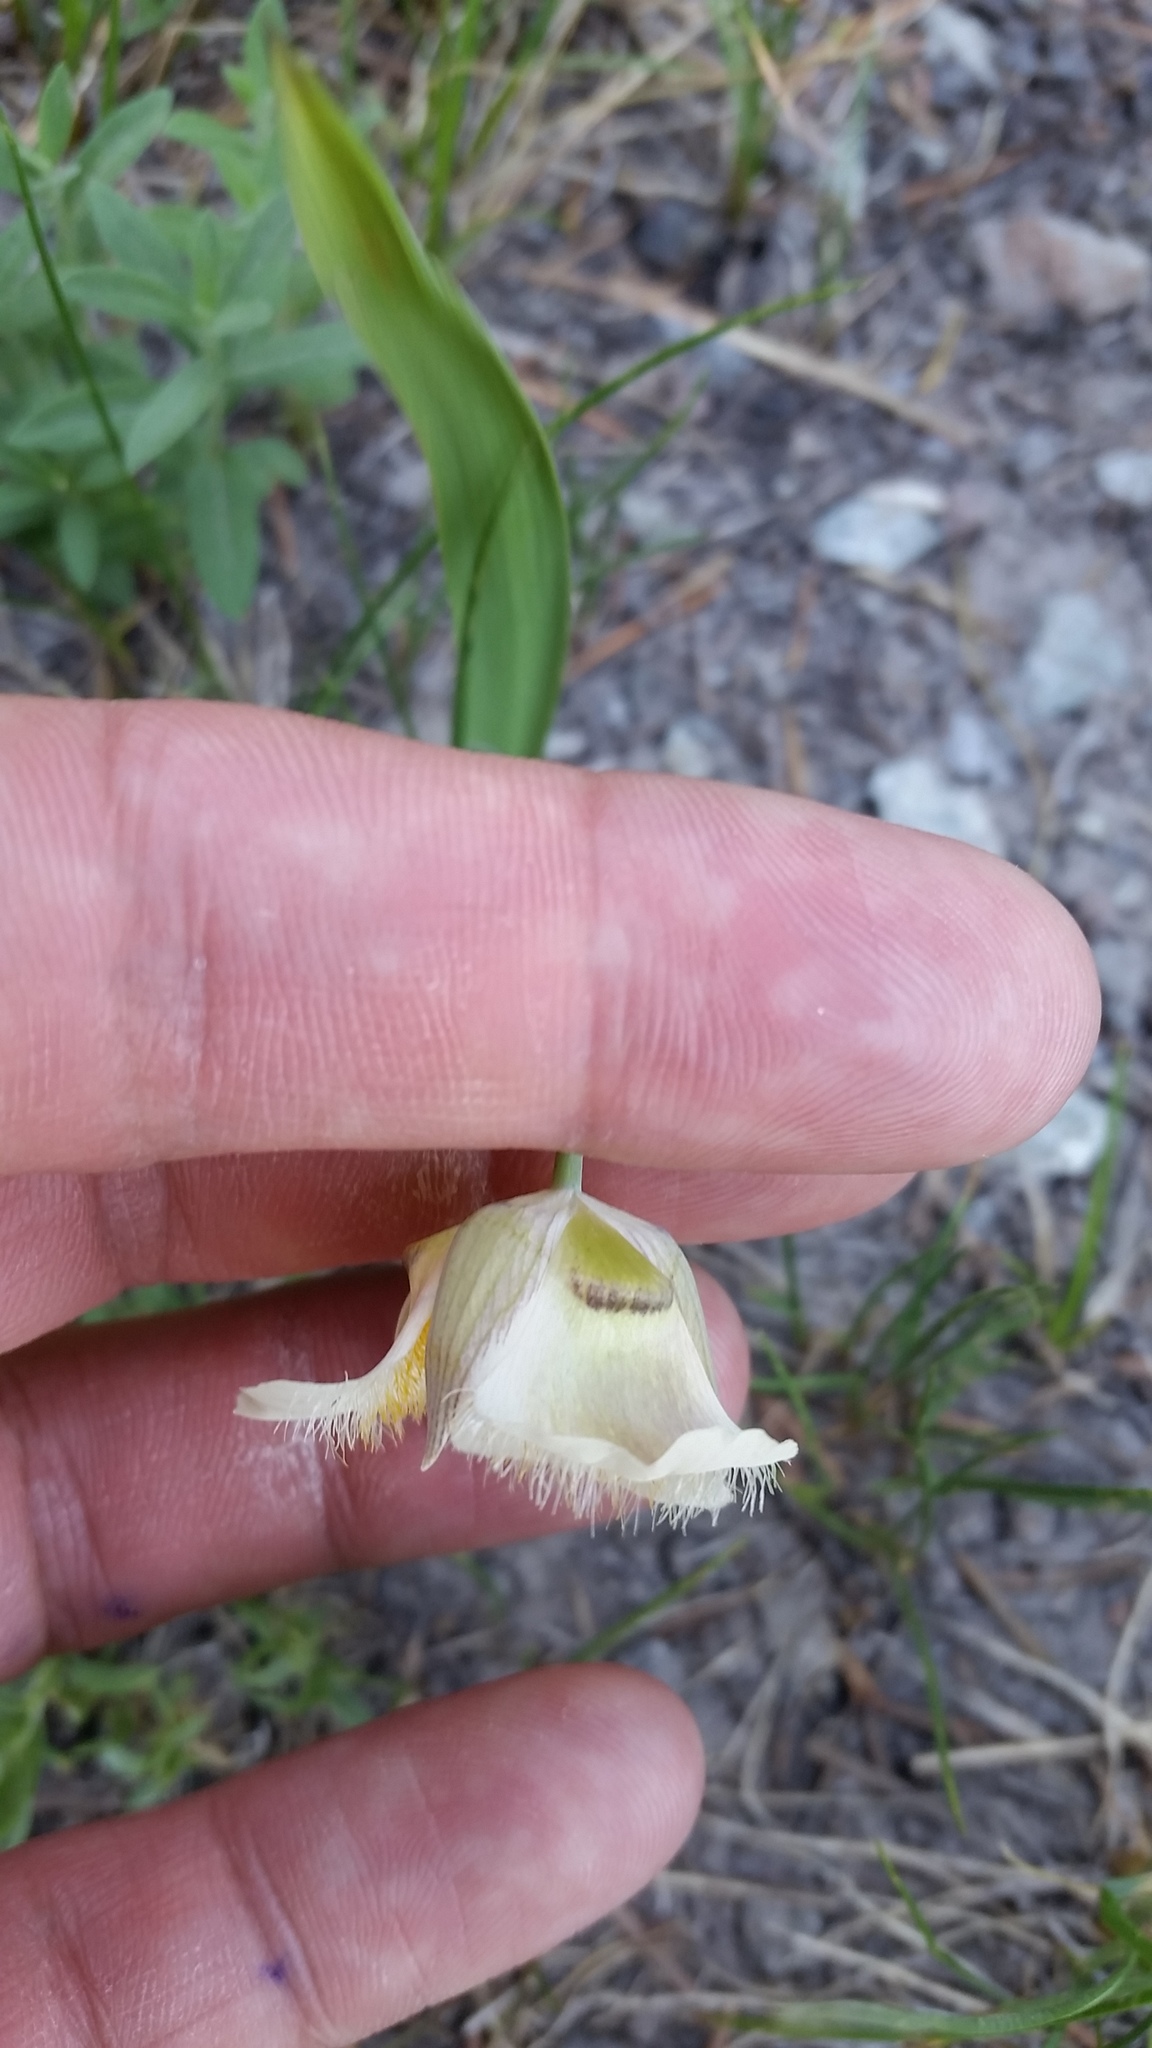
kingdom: Plantae
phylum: Tracheophyta
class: Liliopsida
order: Liliales
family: Liliaceae
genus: Calochortus
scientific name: Calochortus subalpinus
